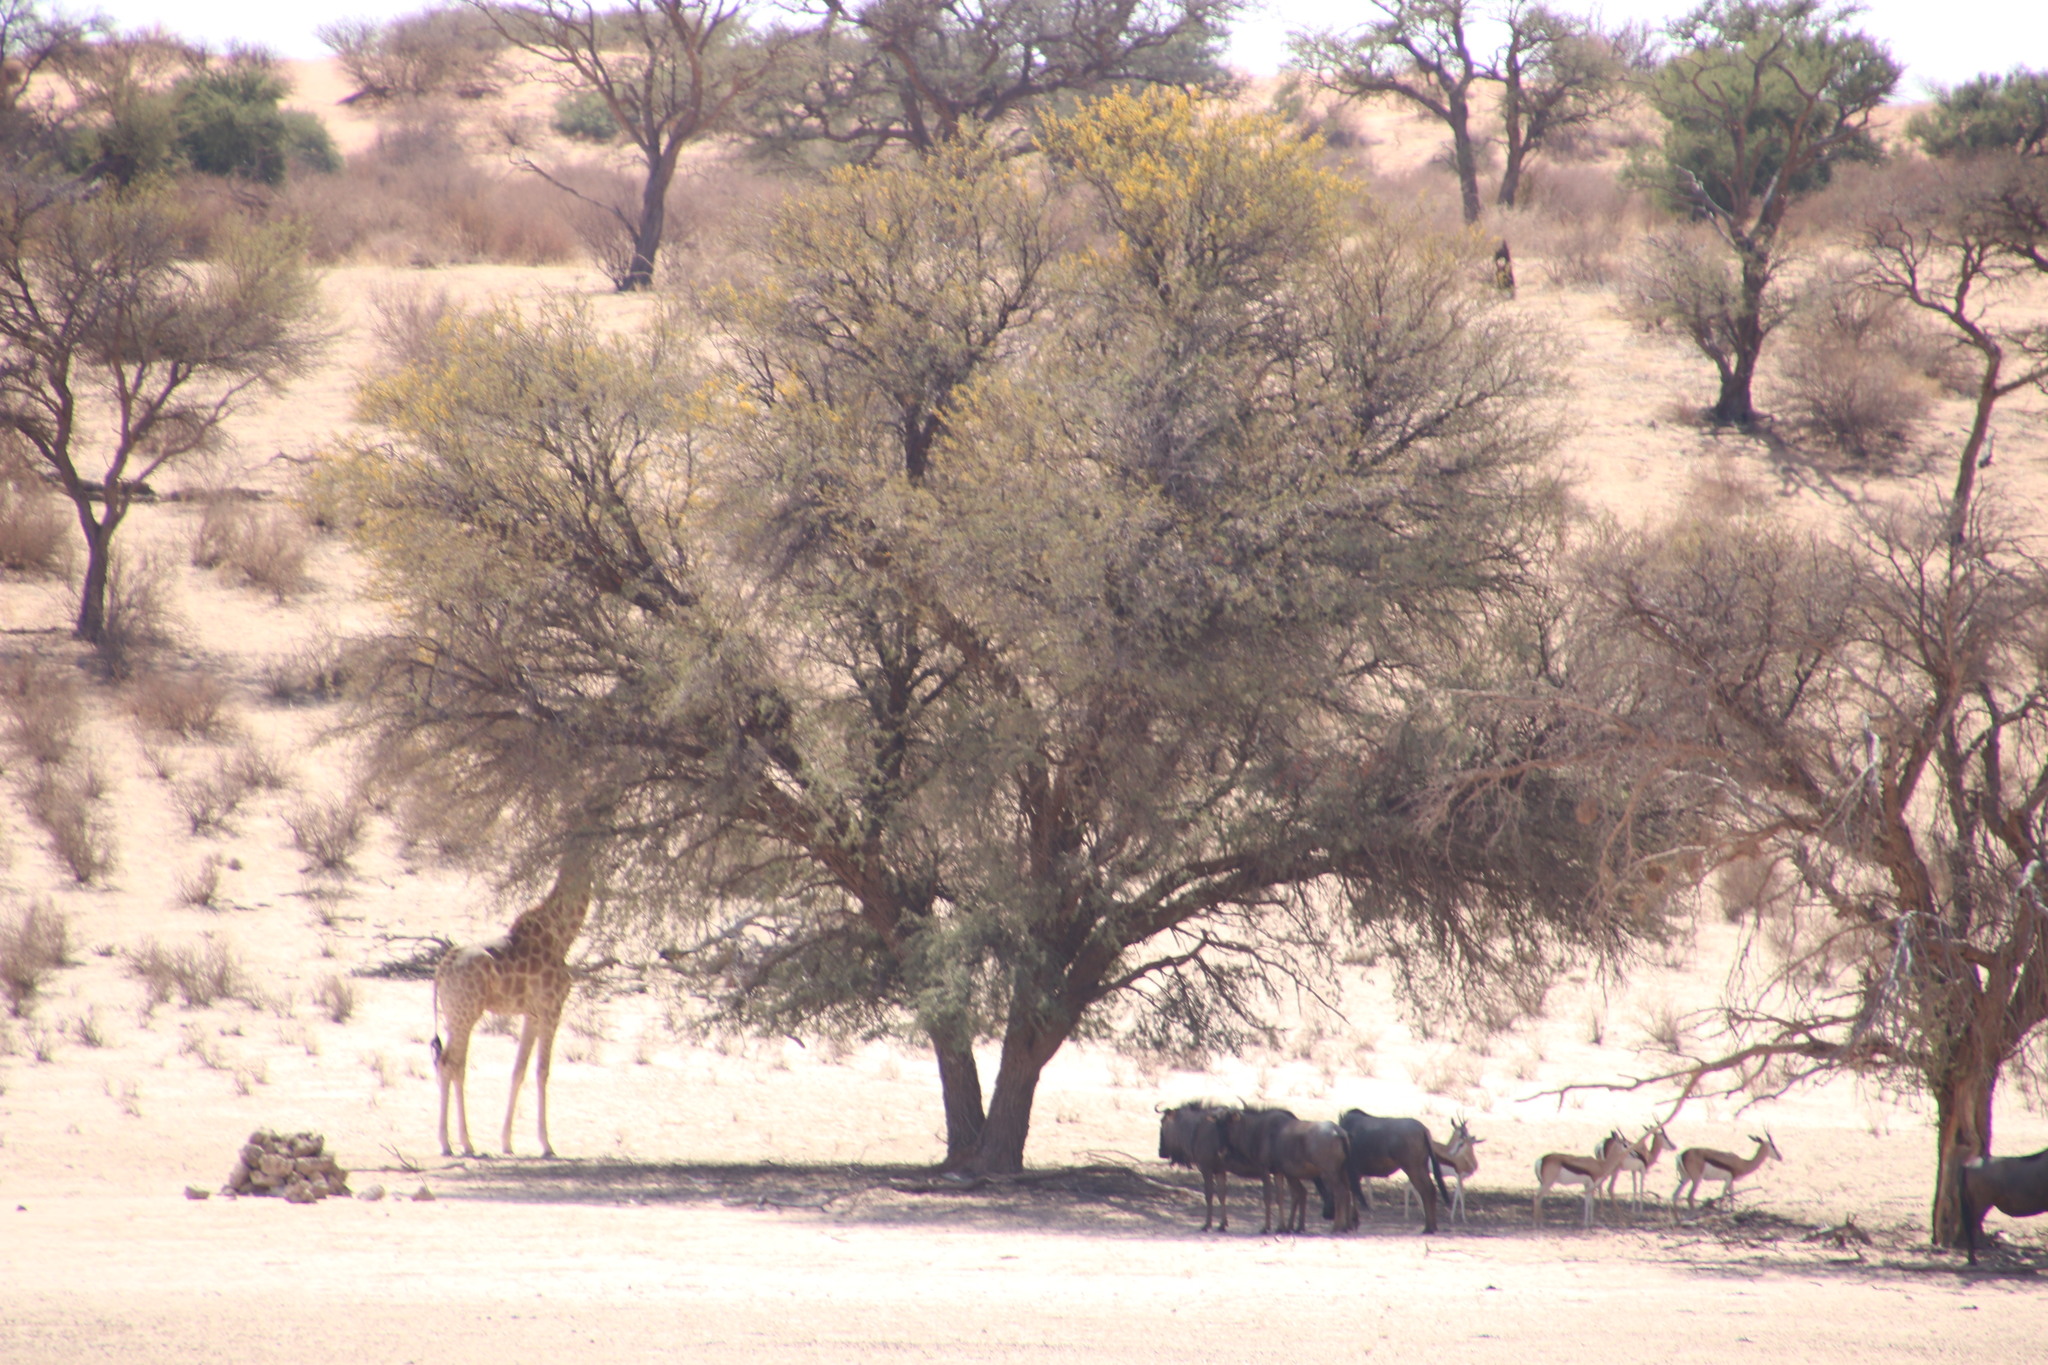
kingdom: Animalia
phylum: Chordata
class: Mammalia
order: Artiodactyla
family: Giraffidae
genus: Giraffa
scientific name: Giraffa giraffa
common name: Southern giraffe
